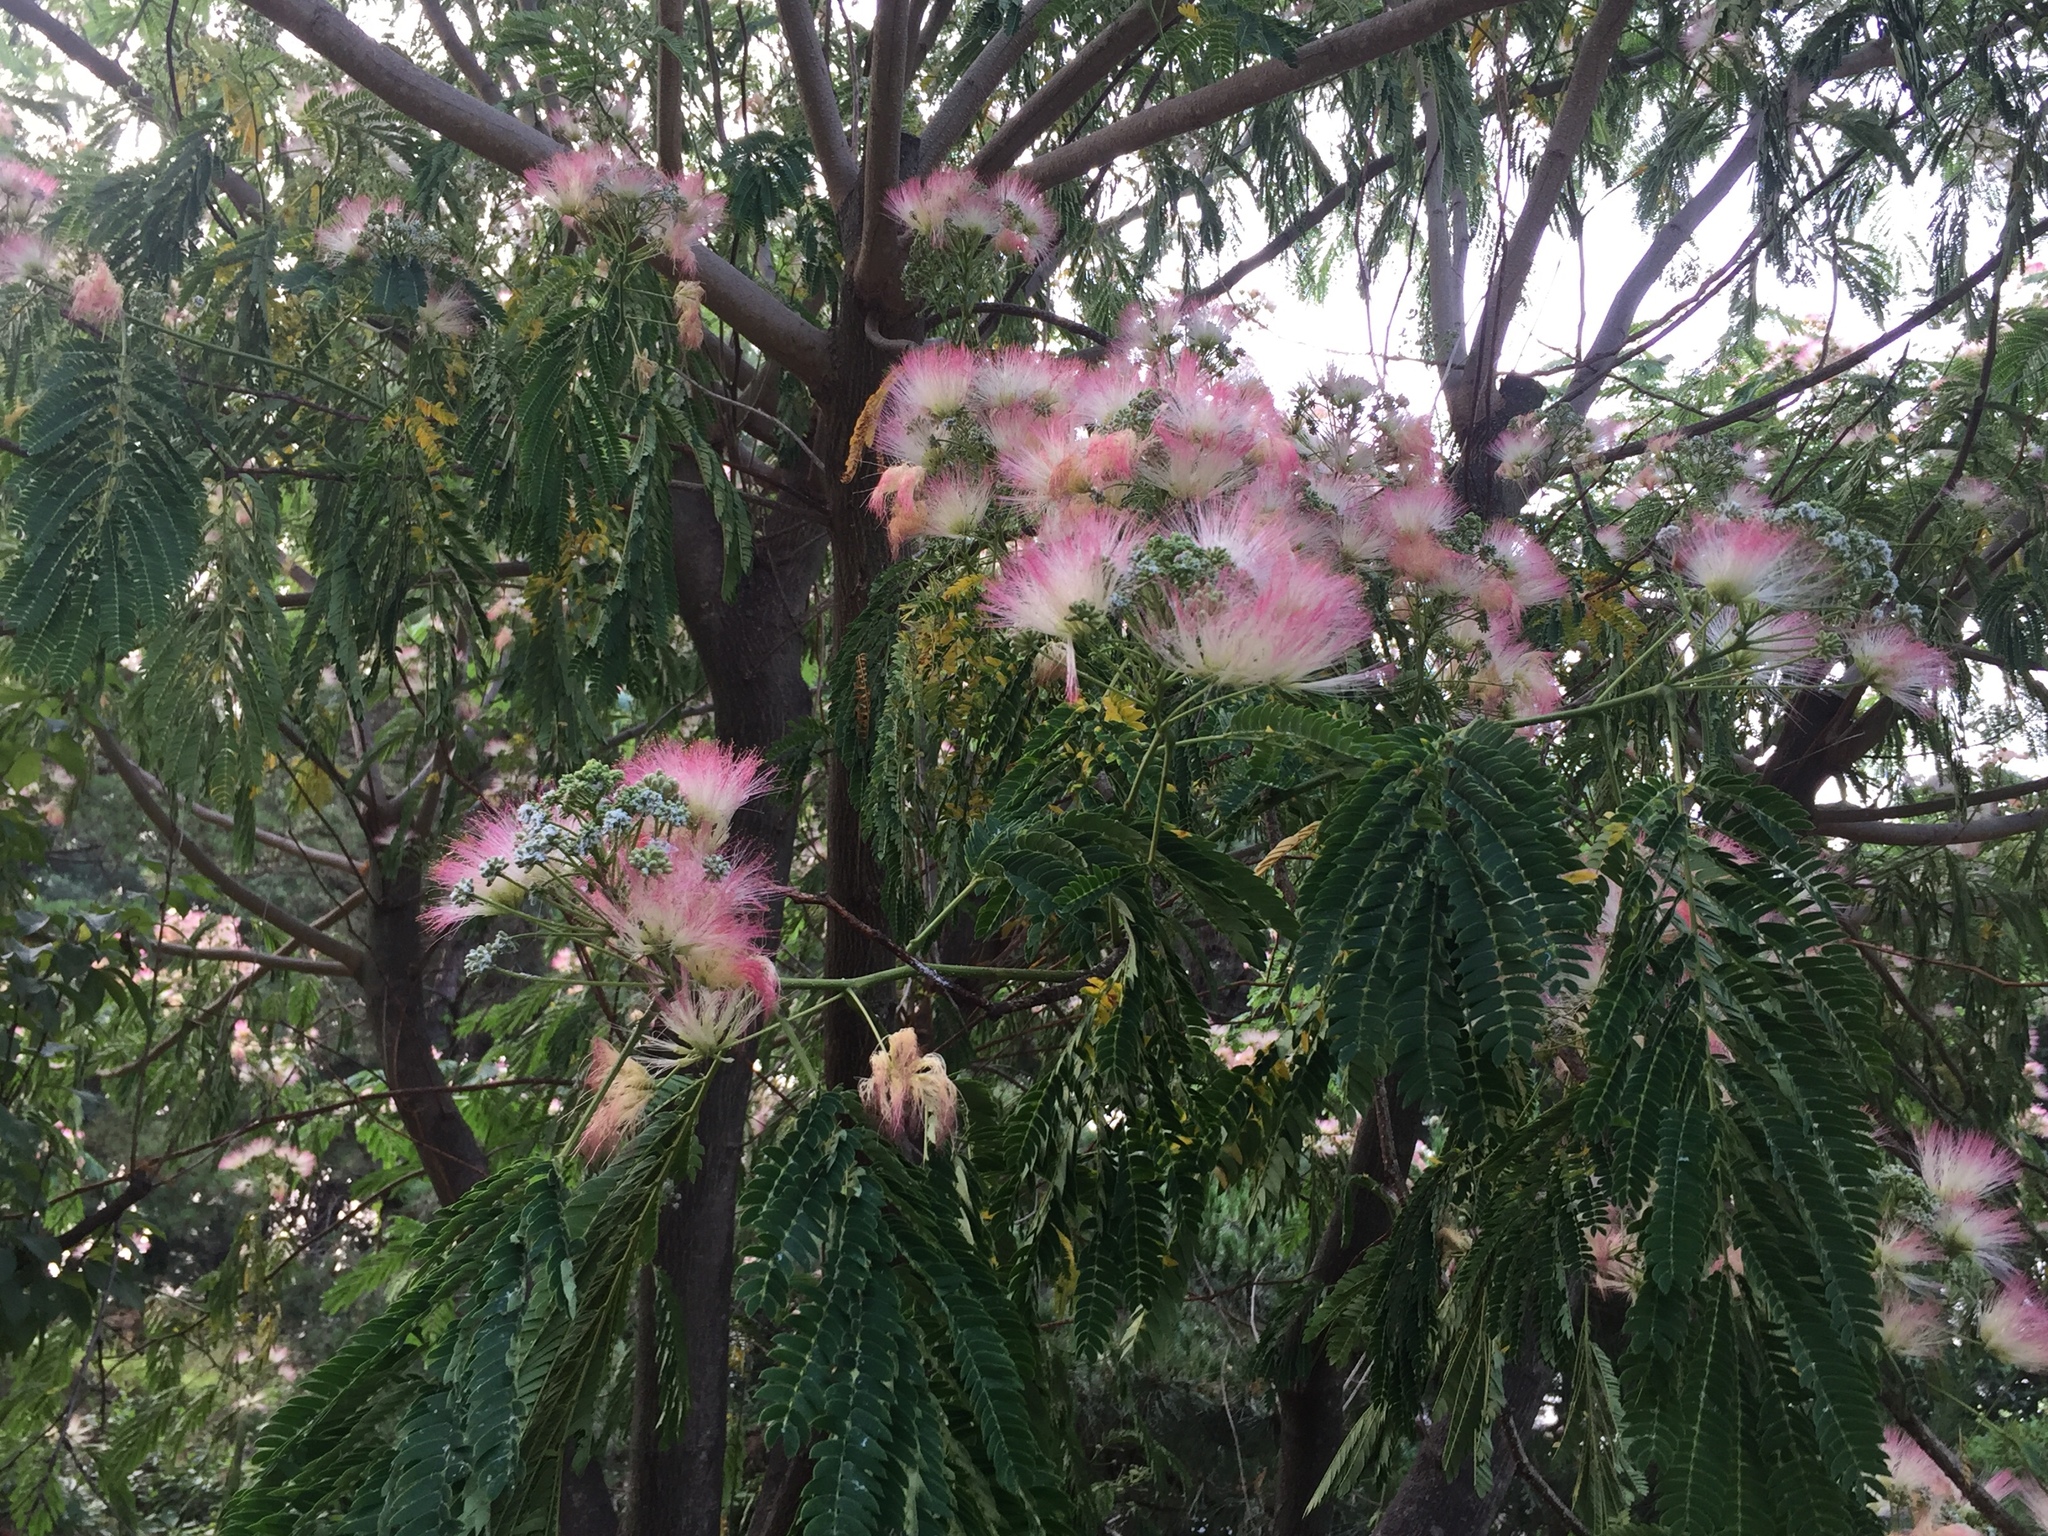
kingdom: Plantae
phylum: Tracheophyta
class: Magnoliopsida
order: Fabales
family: Fabaceae
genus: Albizia
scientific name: Albizia julibrissin
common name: Silktree
